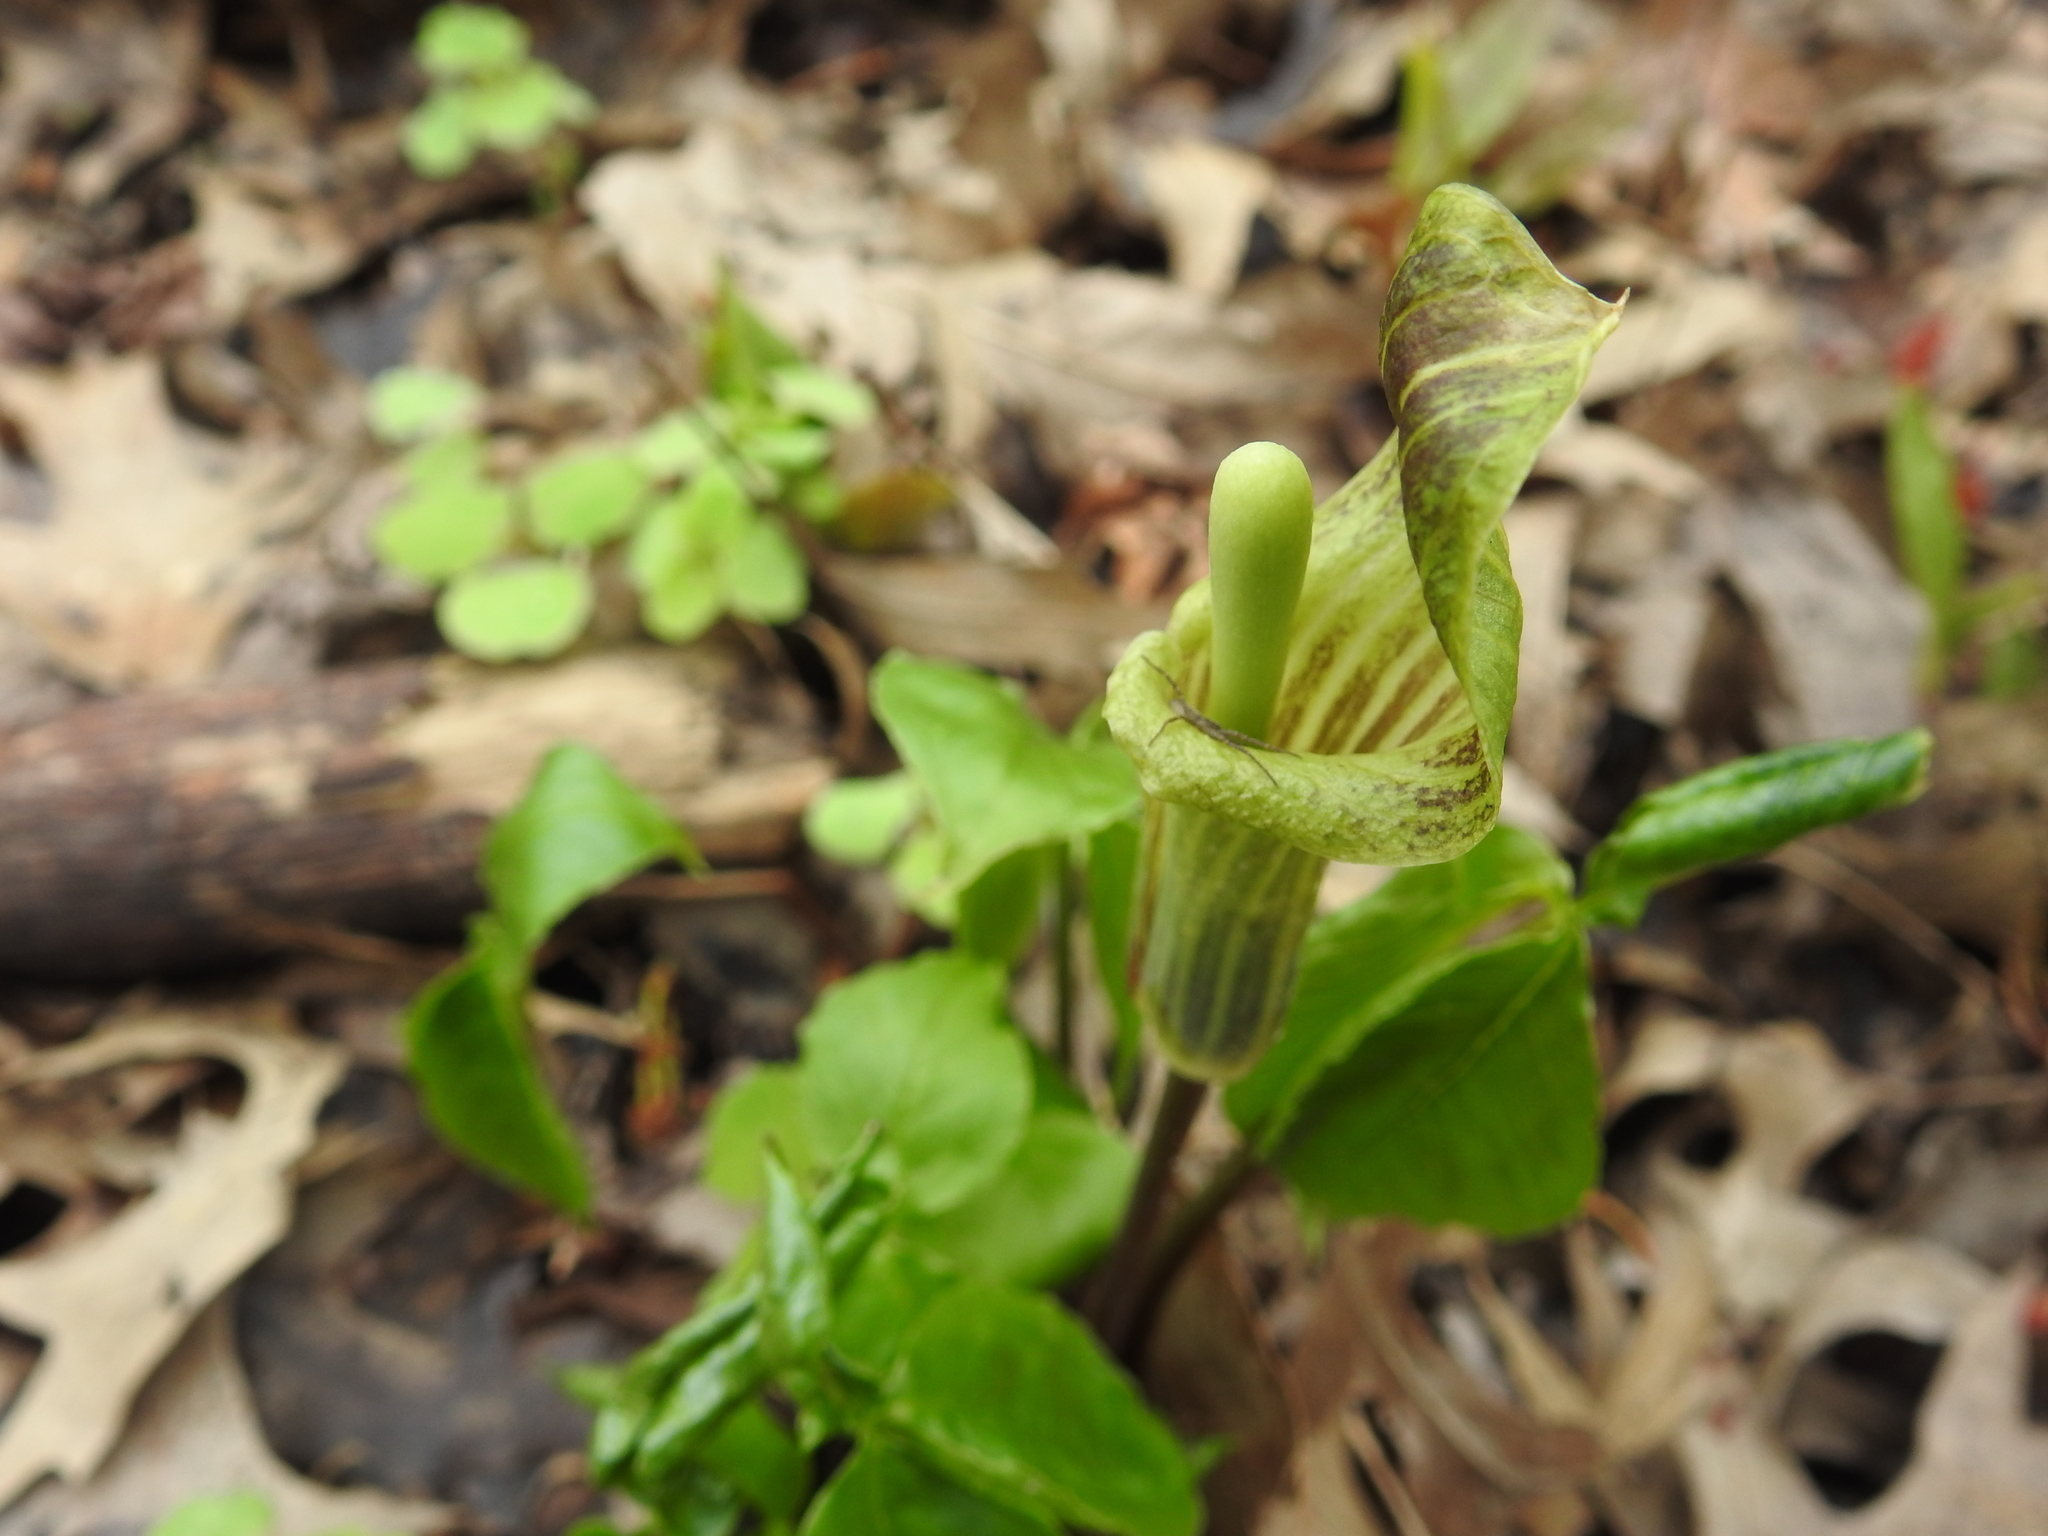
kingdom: Plantae
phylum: Tracheophyta
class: Liliopsida
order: Alismatales
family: Araceae
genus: Arisaema
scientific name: Arisaema triphyllum
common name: Jack-in-the-pulpit
